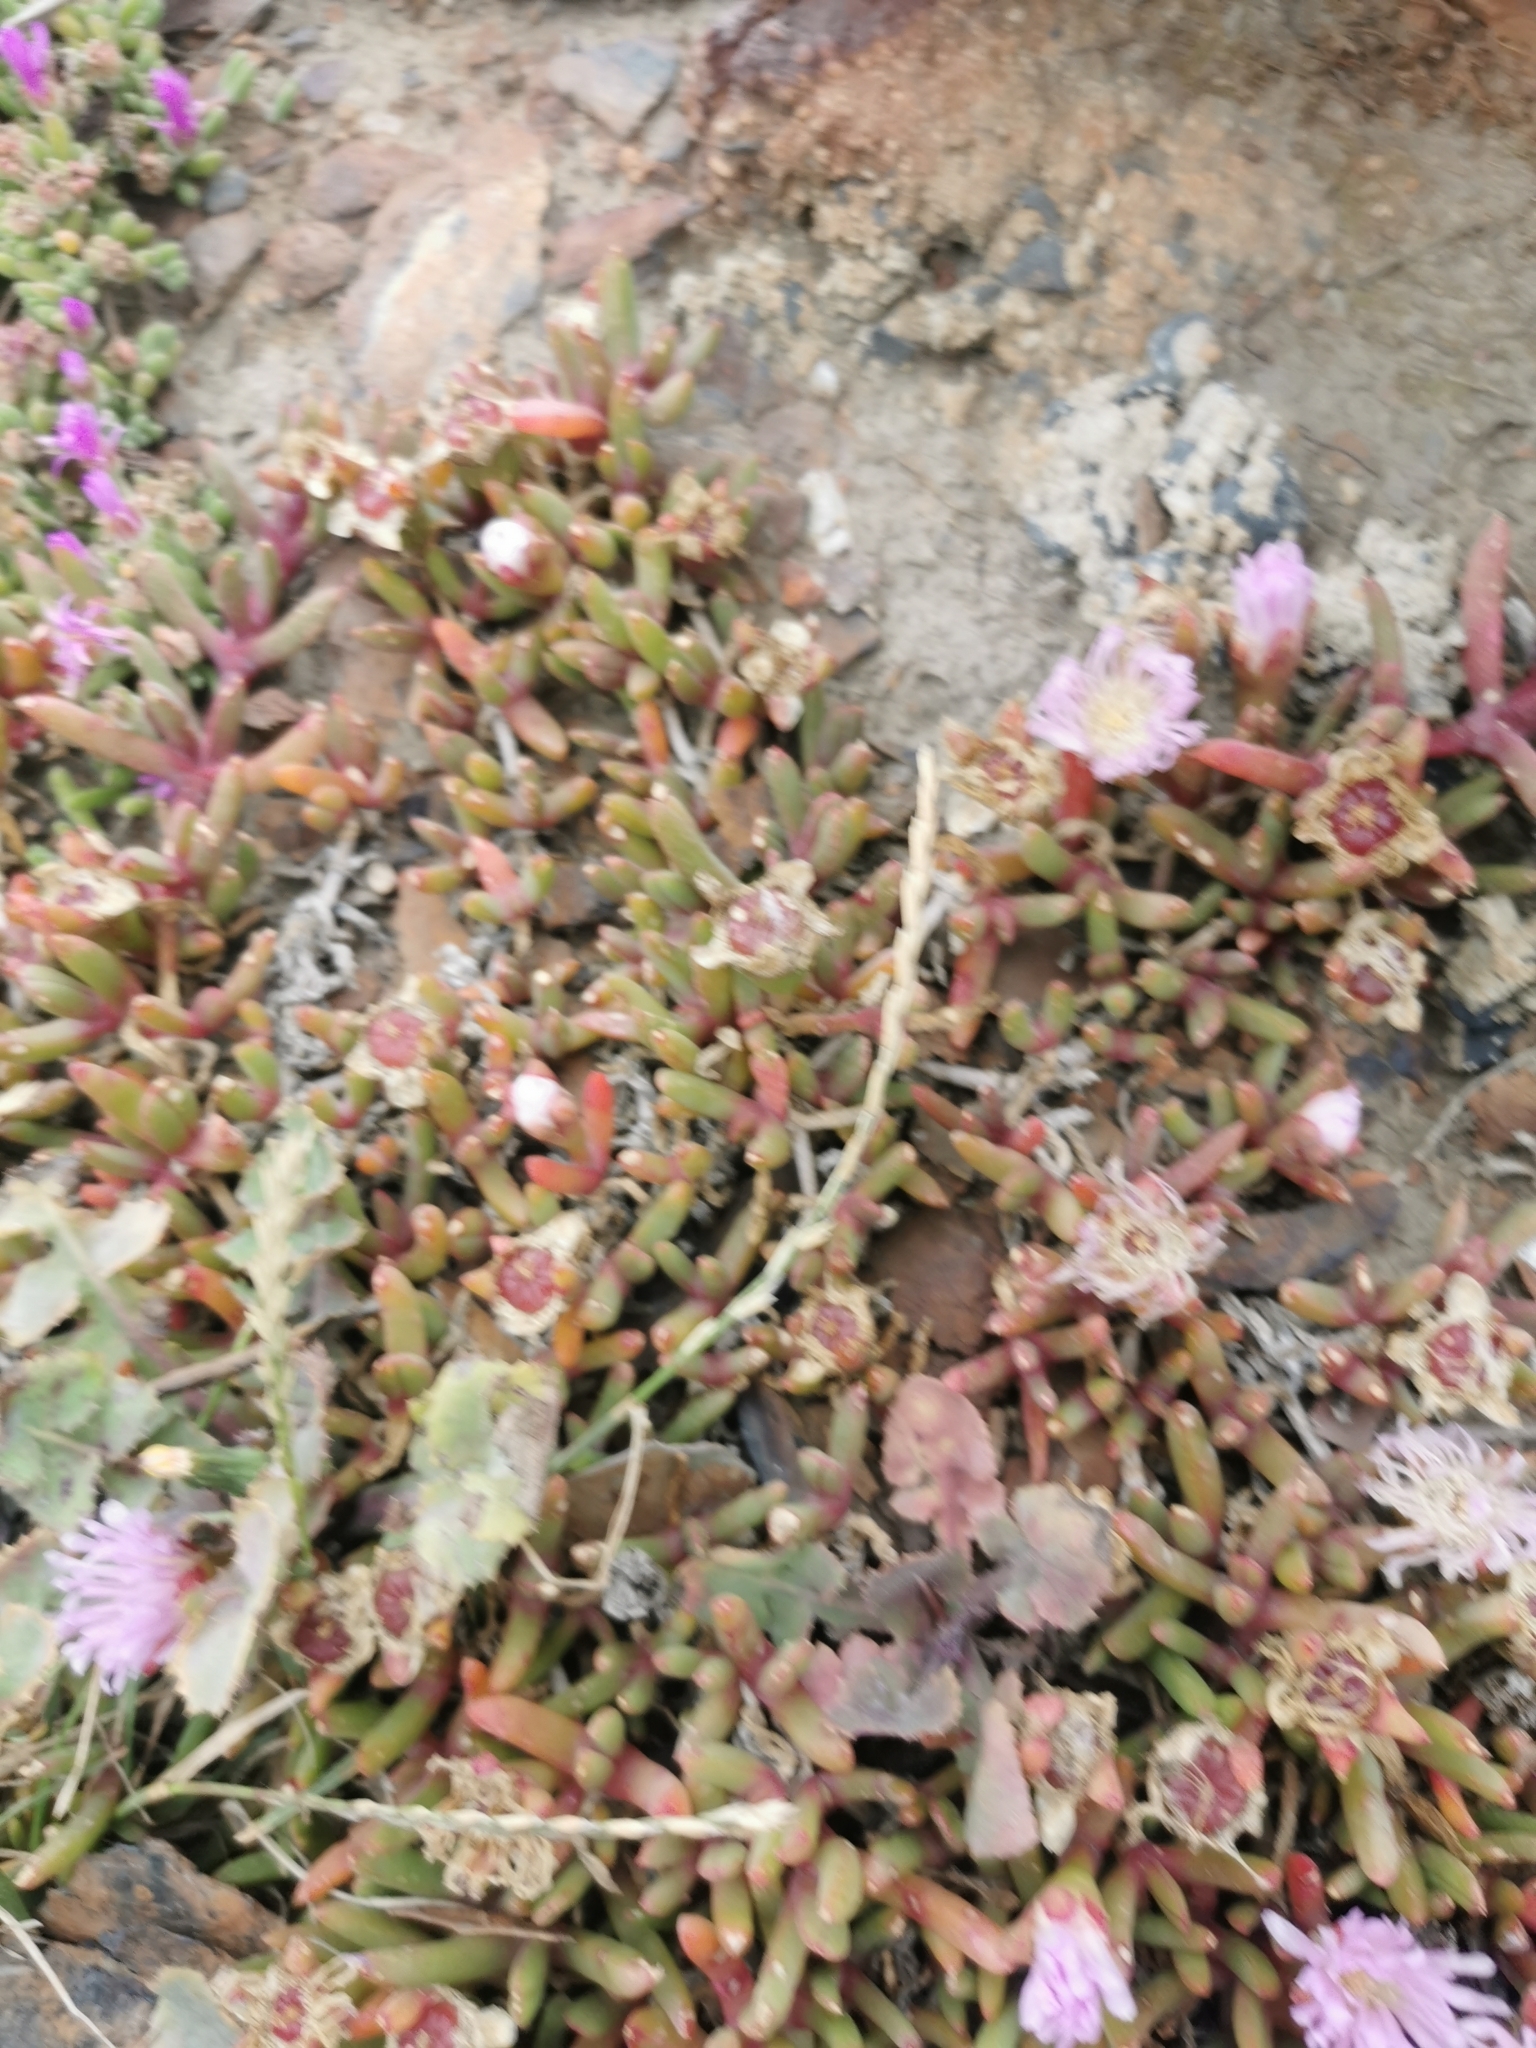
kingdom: Plantae
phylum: Tracheophyta
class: Magnoliopsida
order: Caryophyllales
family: Aizoaceae
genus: Disphyma
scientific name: Disphyma australe
